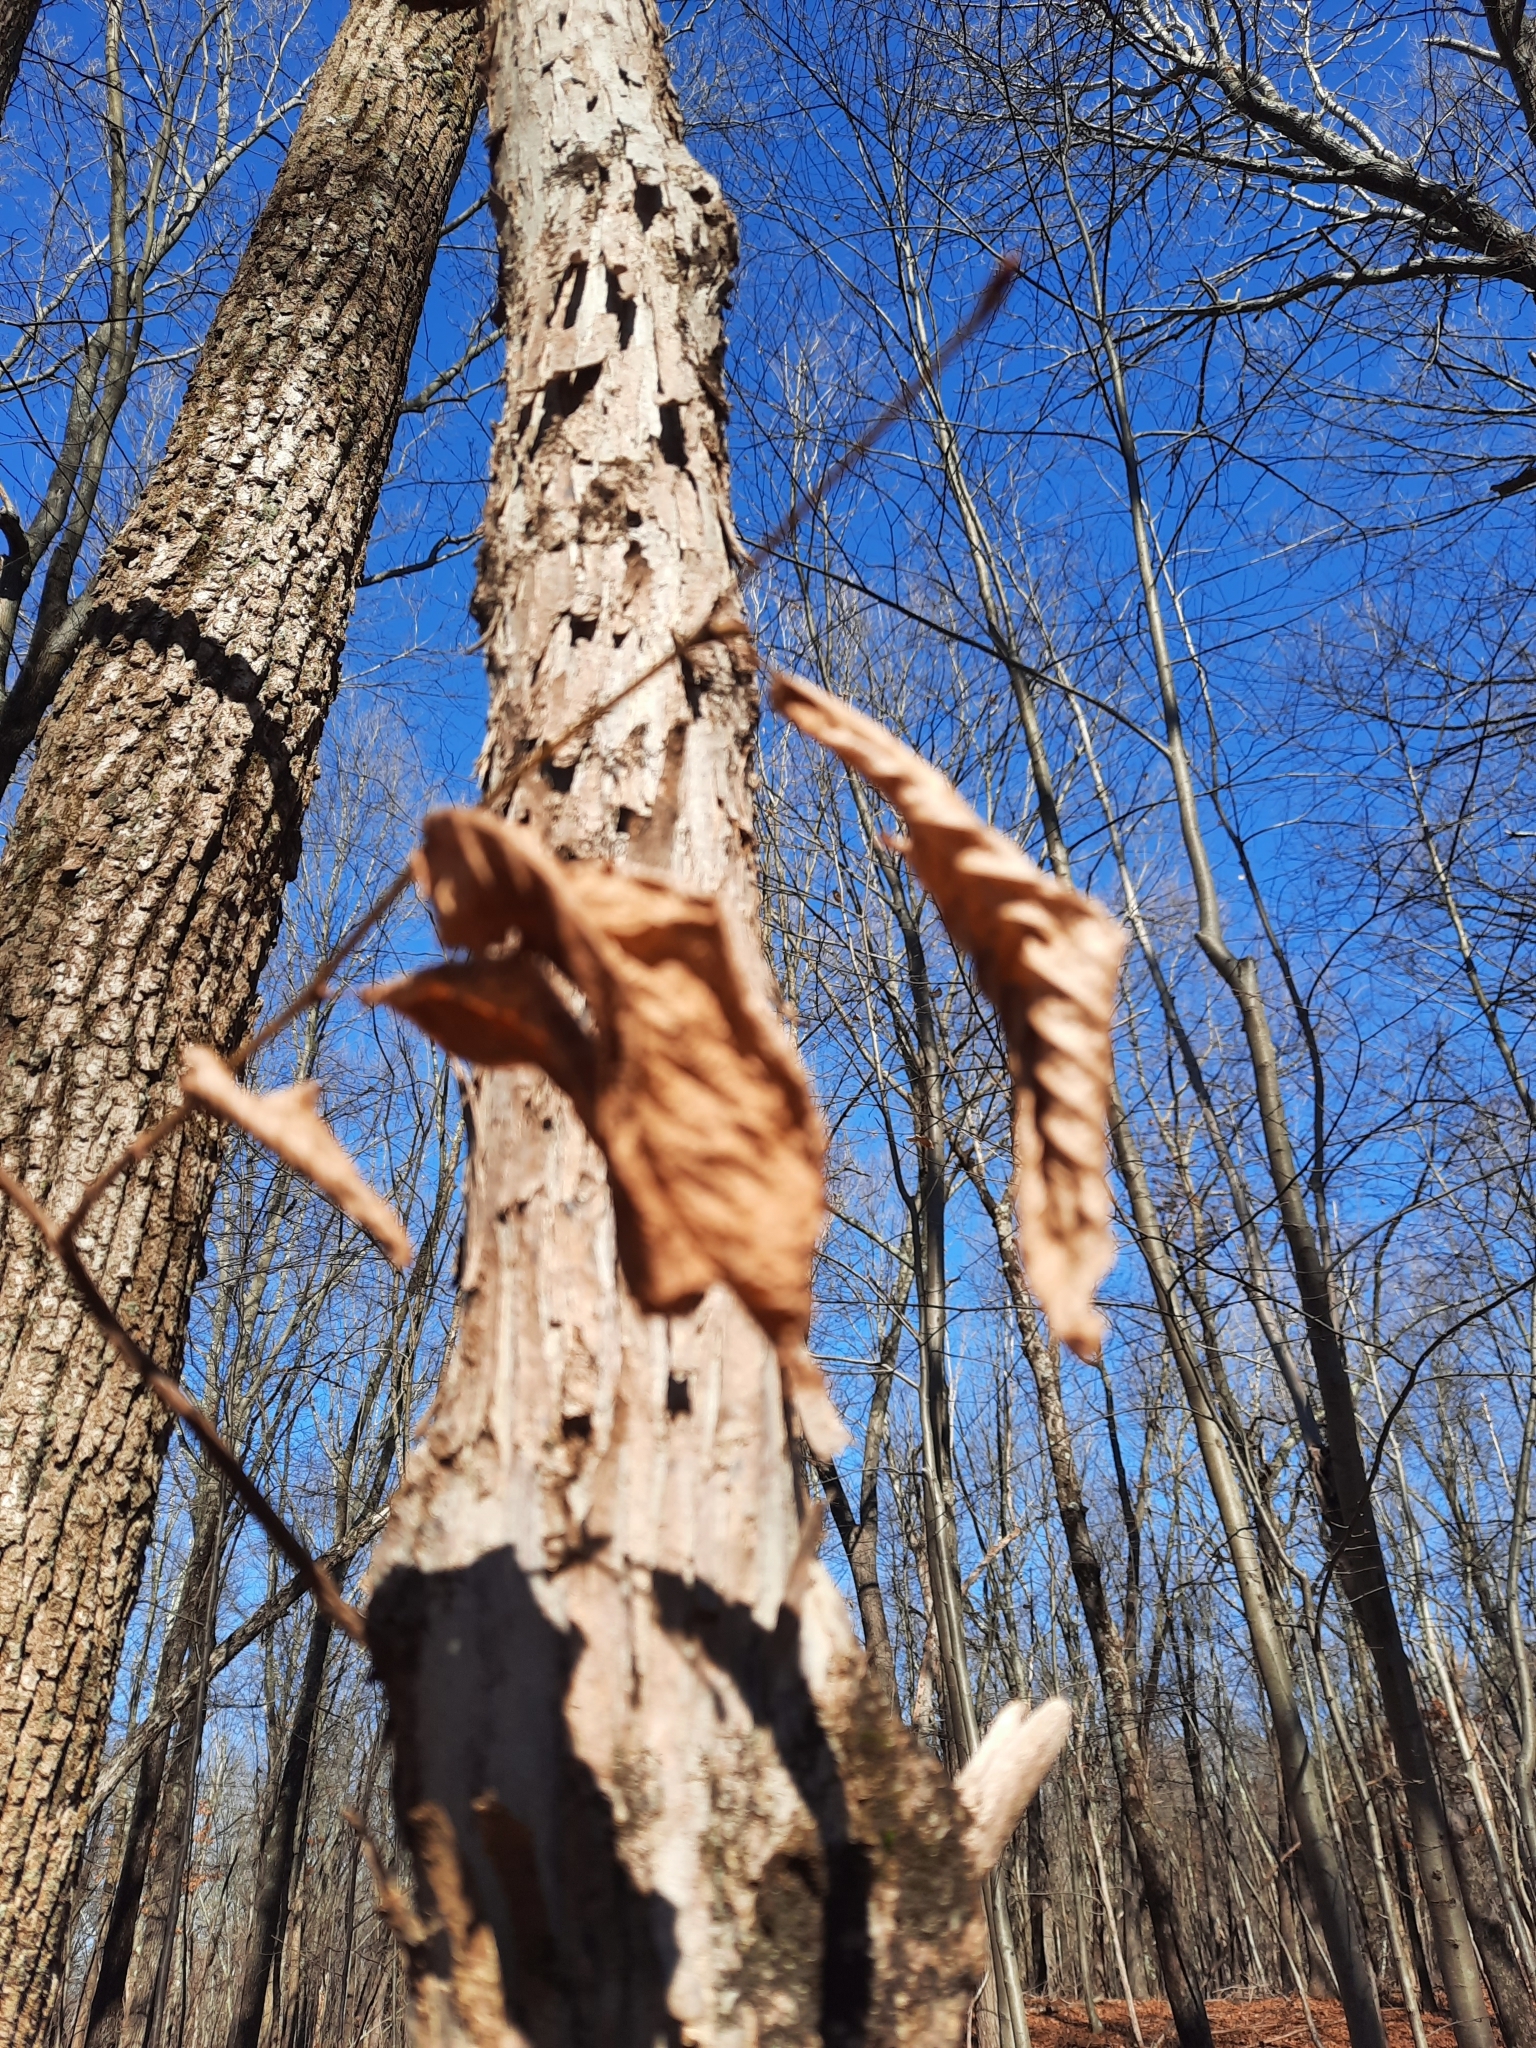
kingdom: Plantae
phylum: Tracheophyta
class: Magnoliopsida
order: Fagales
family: Betulaceae
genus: Ostrya
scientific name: Ostrya virginiana
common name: Ironwood
